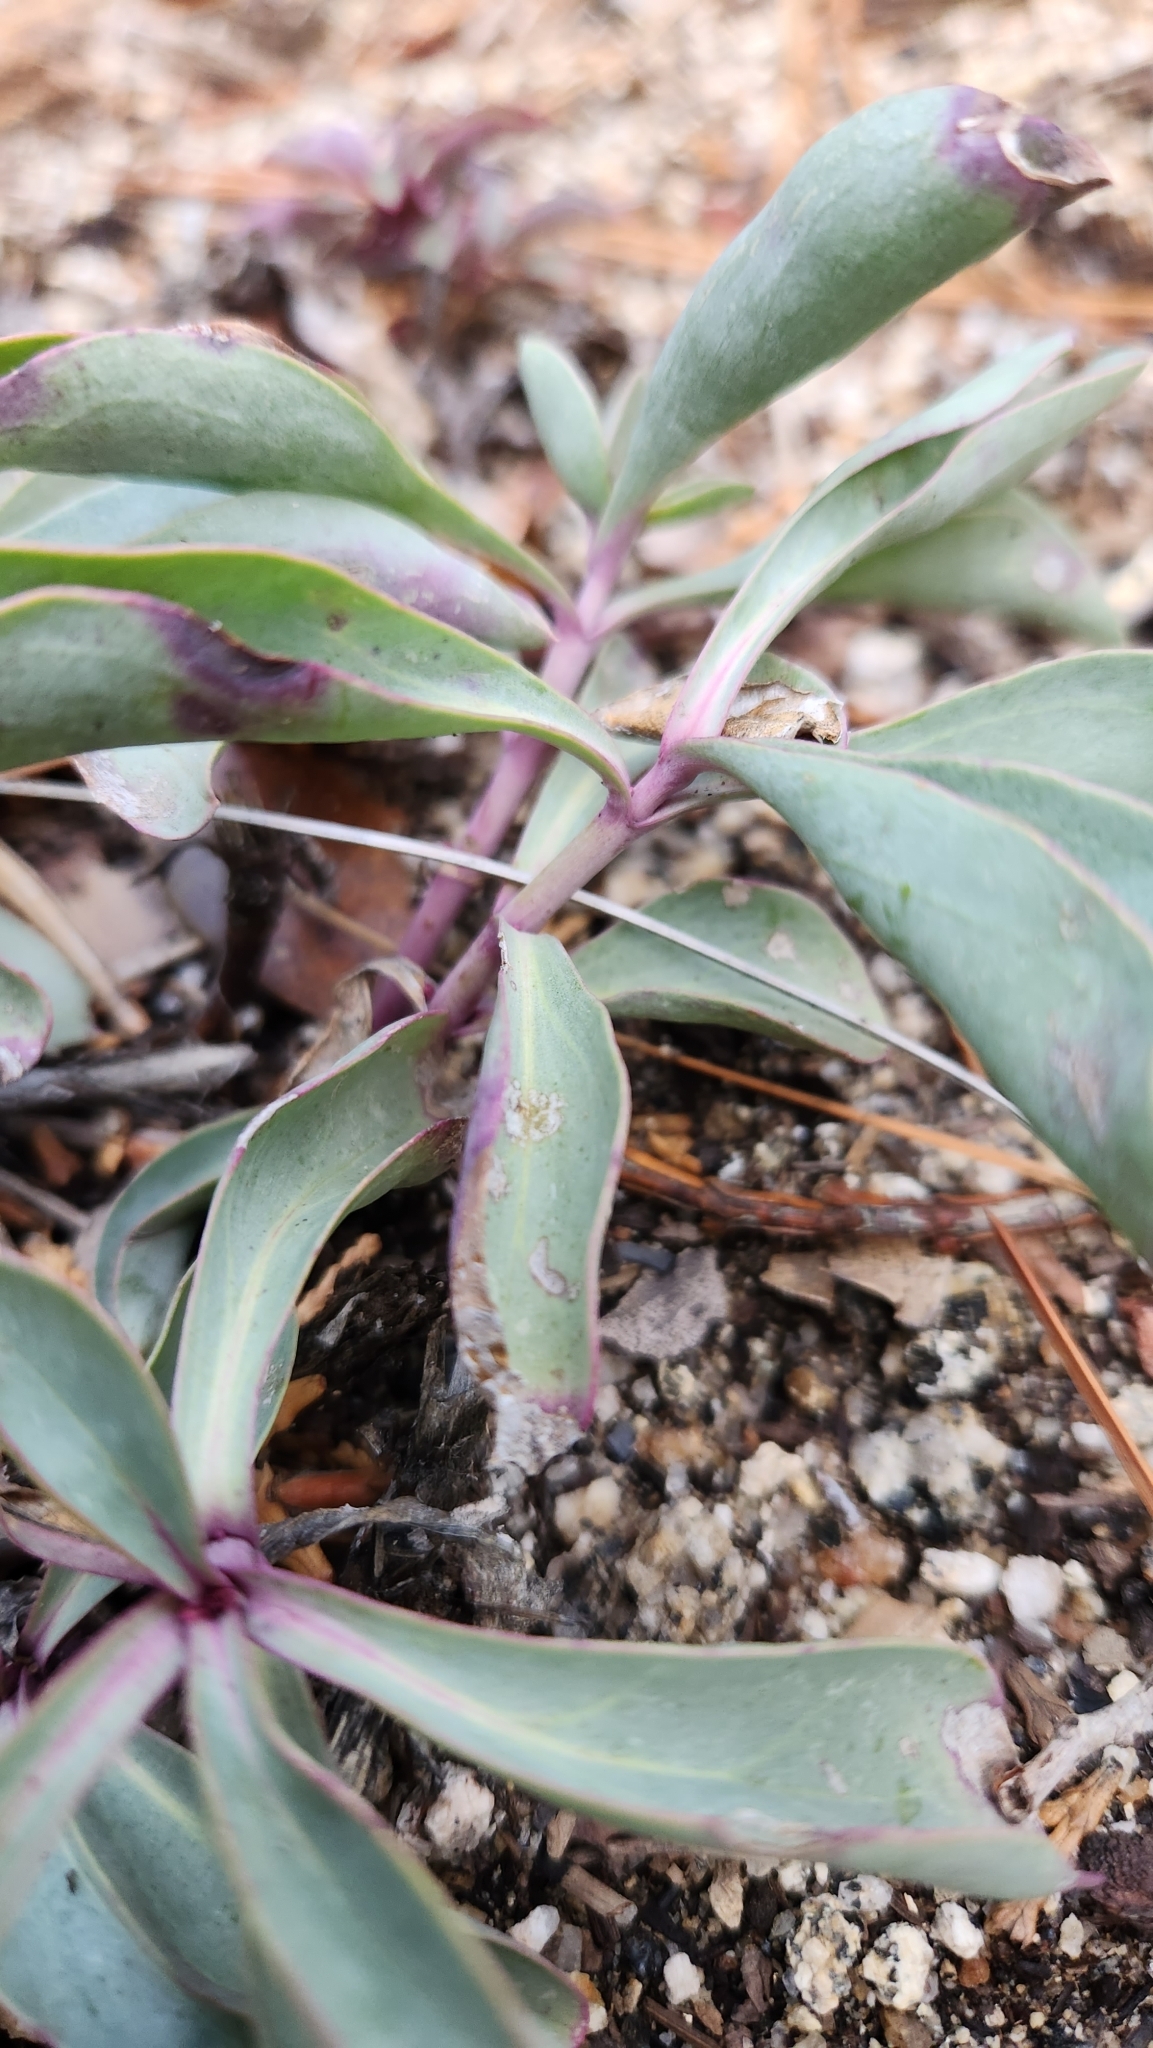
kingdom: Plantae
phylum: Tracheophyta
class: Magnoliopsida
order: Lamiales
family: Plantaginaceae
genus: Penstemon
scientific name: Penstemon centranthifolius
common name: Scarlet bugler
